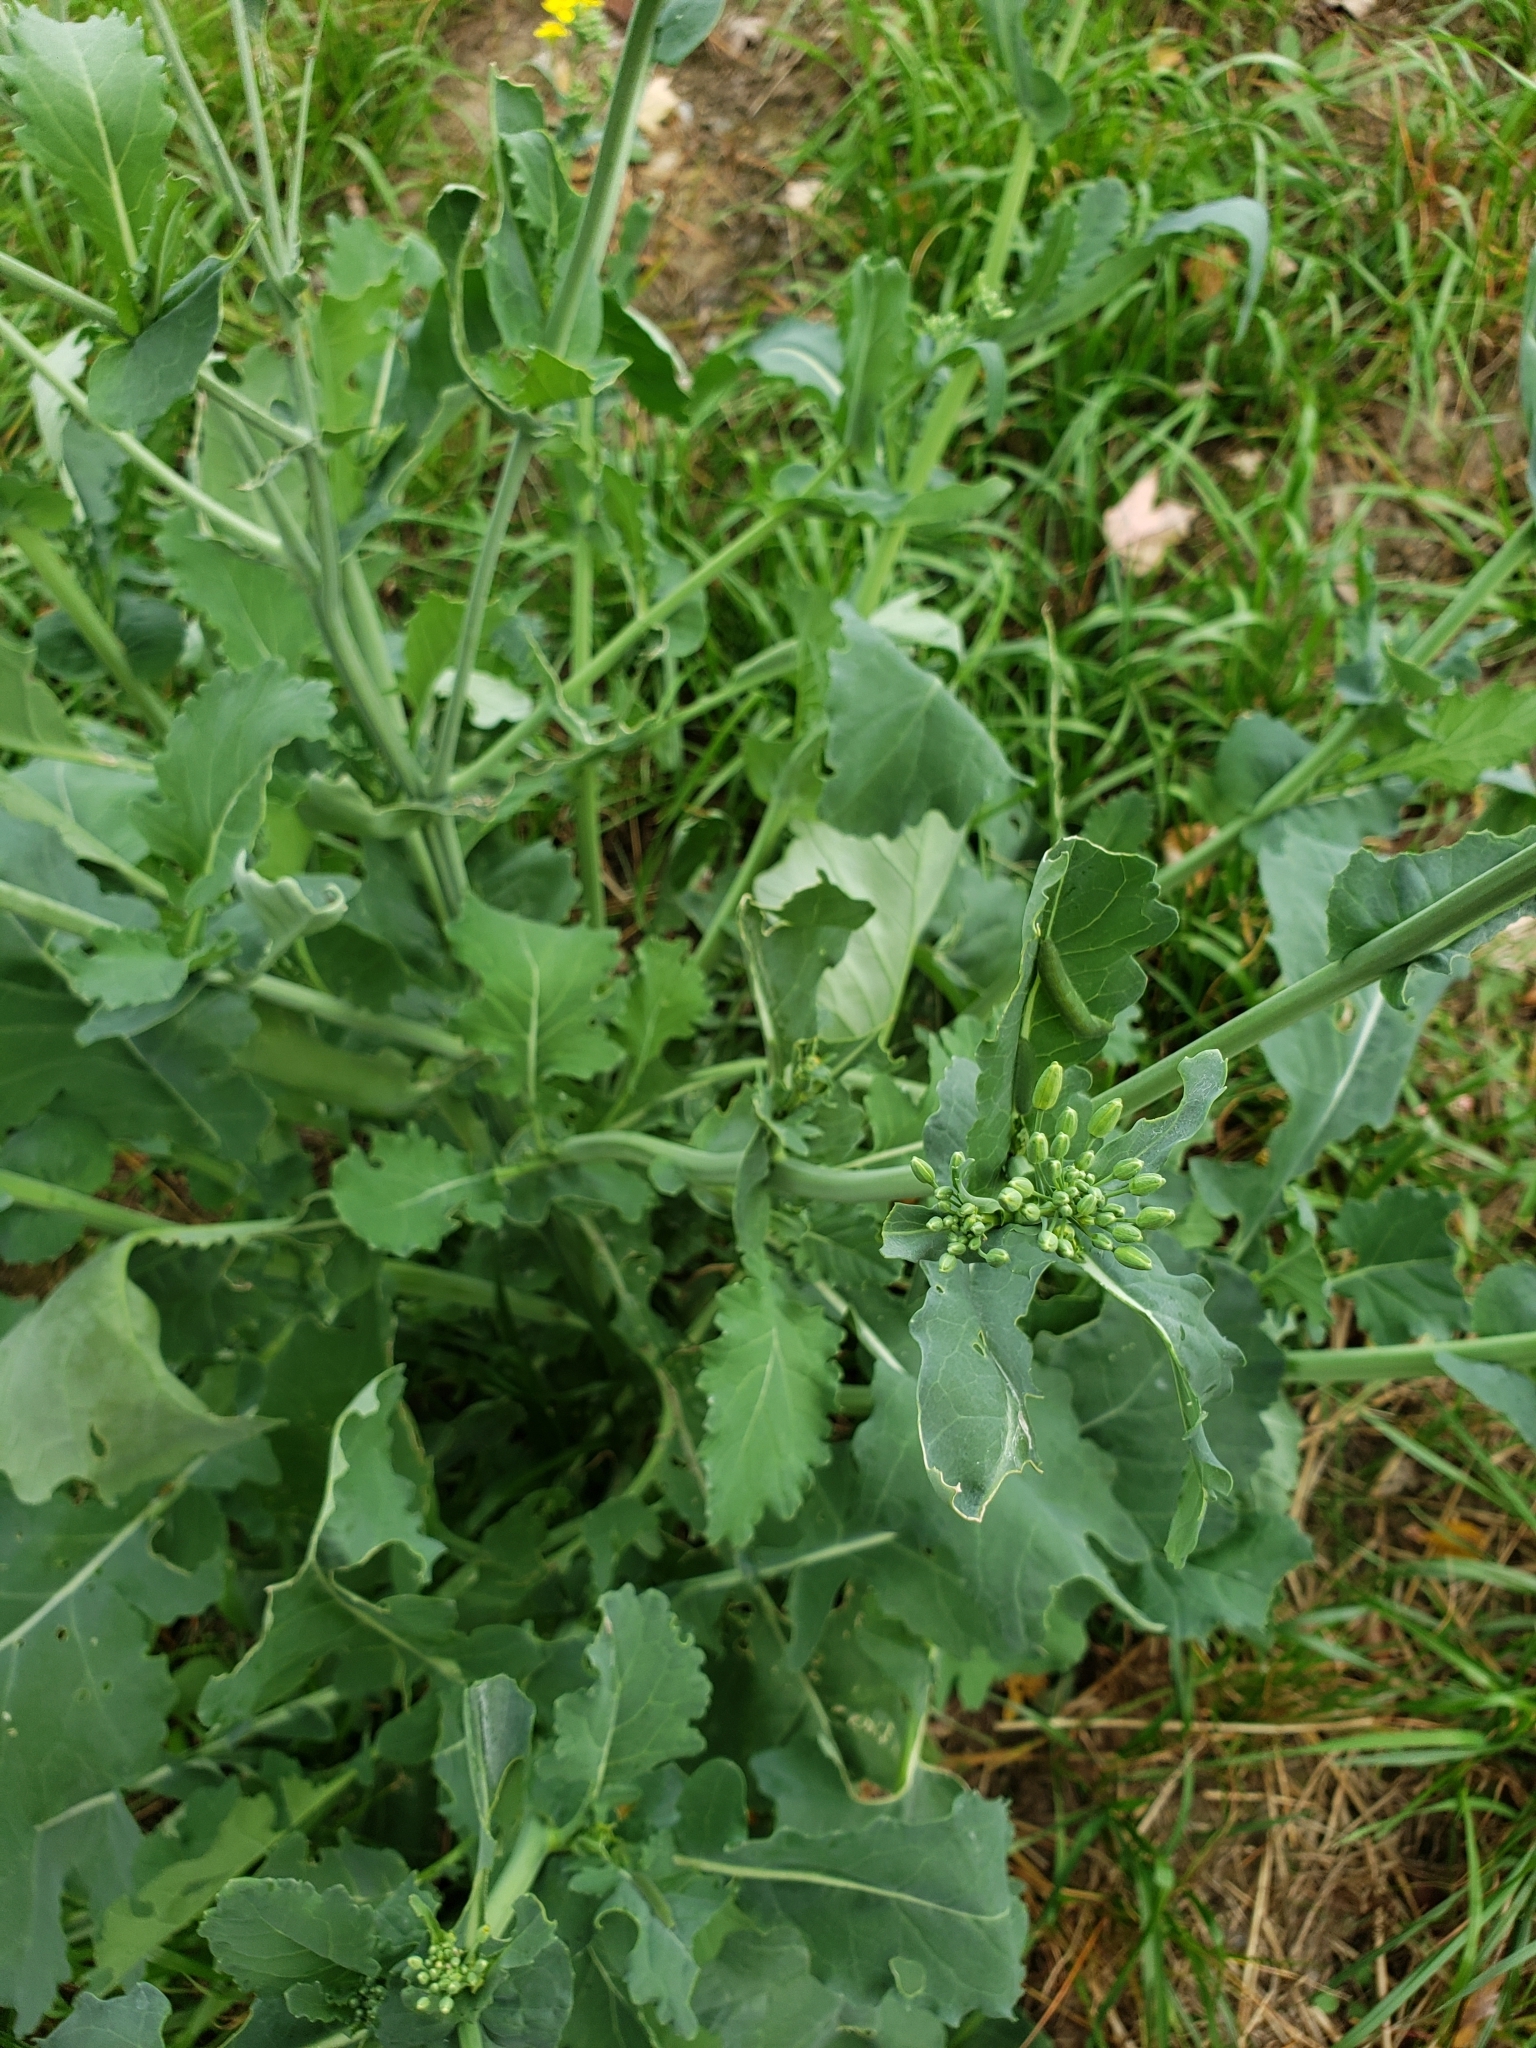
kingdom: Plantae
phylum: Tracheophyta
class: Magnoliopsida
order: Brassicales
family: Brassicaceae
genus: Brassica
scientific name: Brassica rapa
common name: Field mustard
